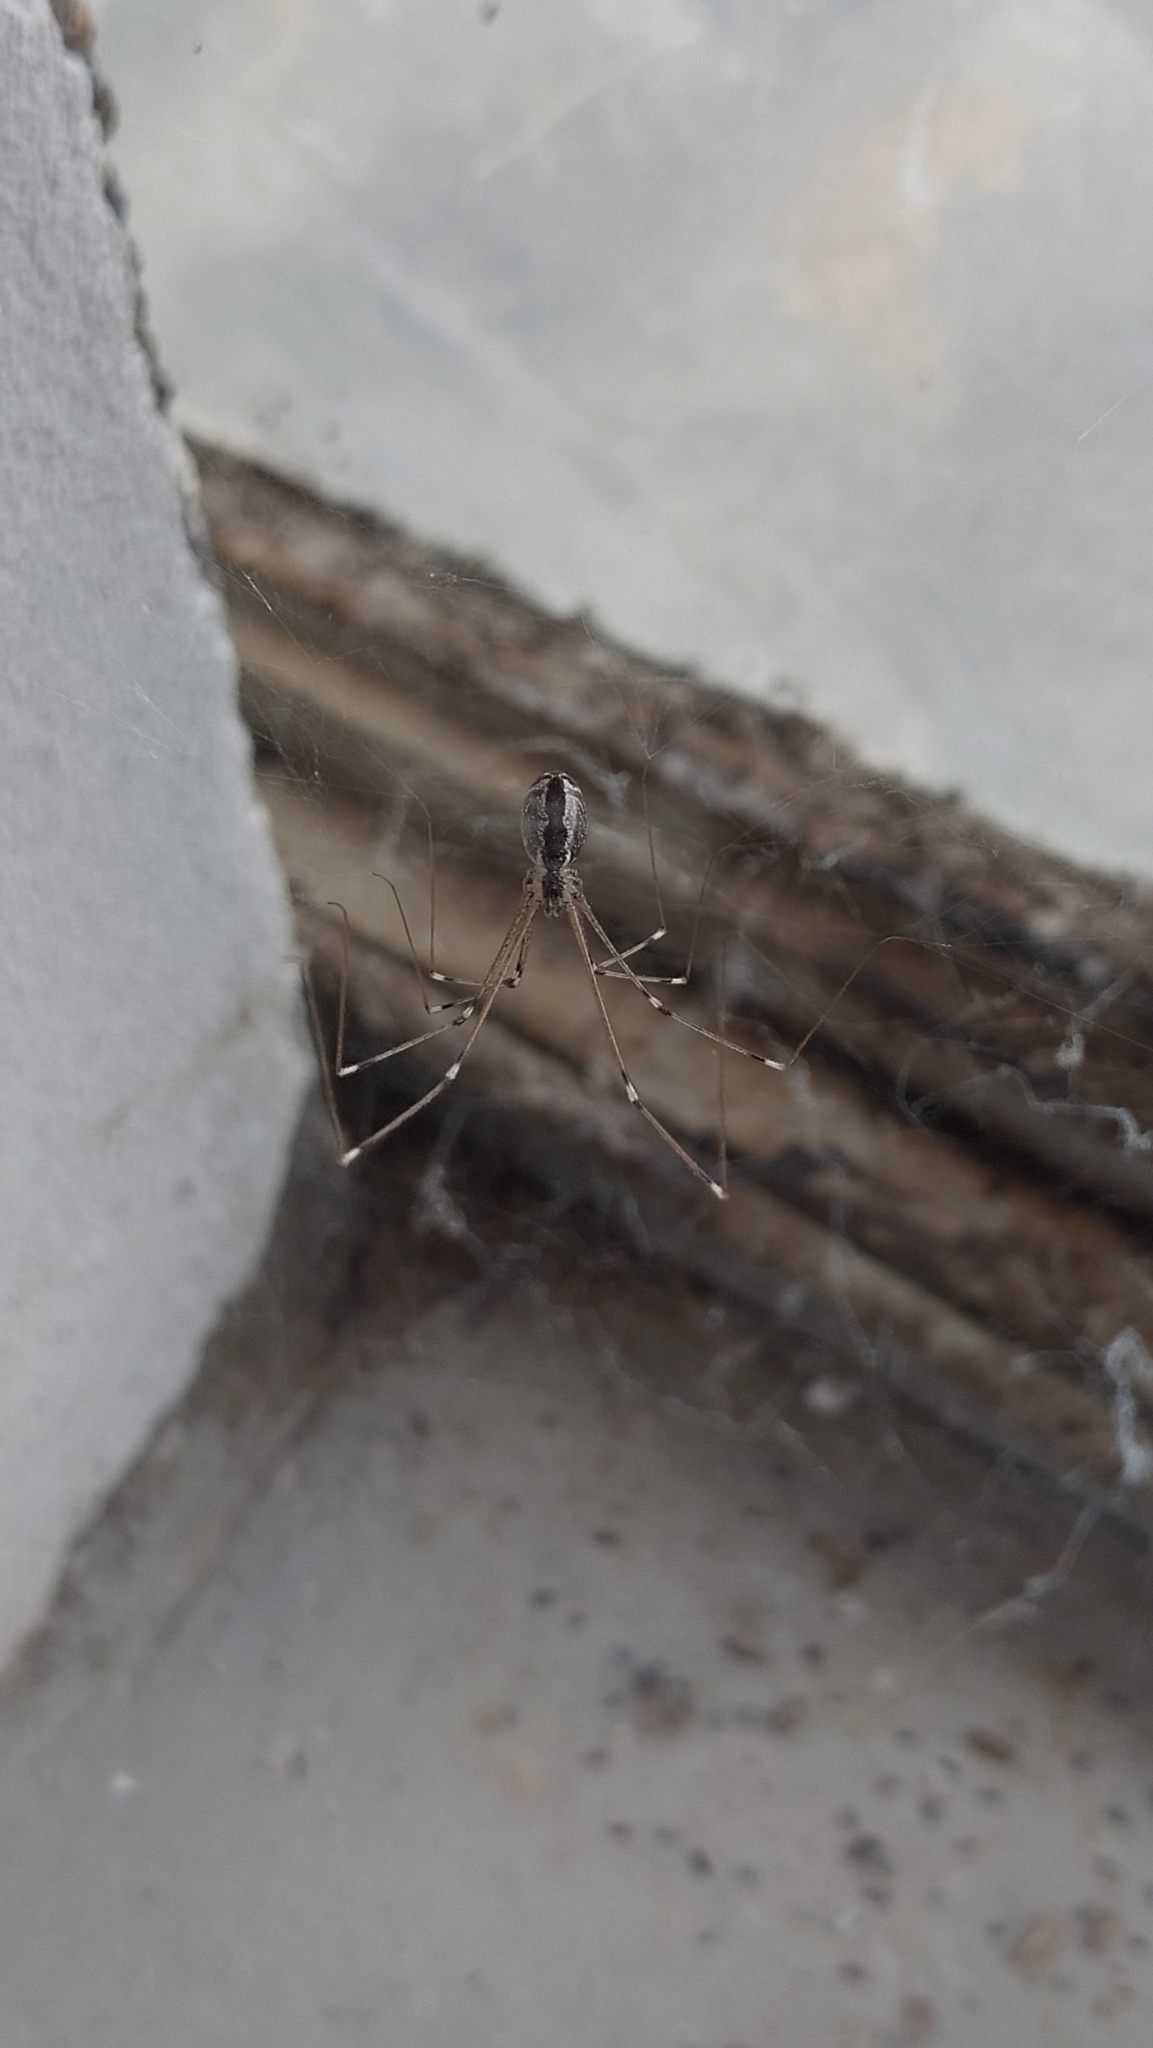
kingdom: Animalia
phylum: Arthropoda
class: Arachnida
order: Araneae
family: Pholcidae
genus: Holocnemus
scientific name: Holocnemus pluchei
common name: Marbled cellar spider
